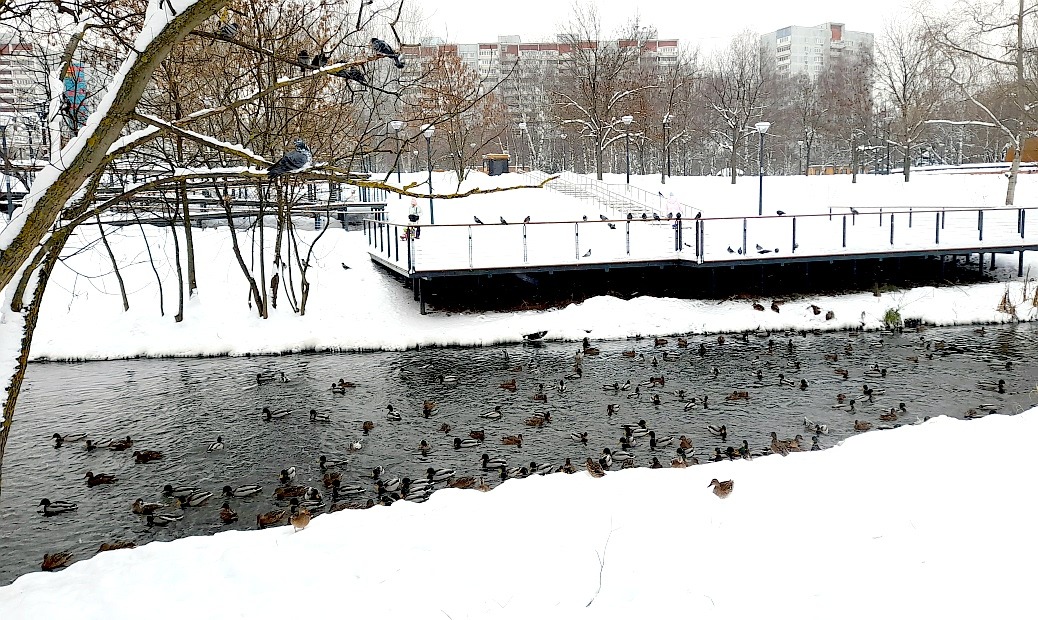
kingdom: Animalia
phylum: Chordata
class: Aves
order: Anseriformes
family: Anatidae
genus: Anas
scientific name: Anas platyrhynchos
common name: Mallard
